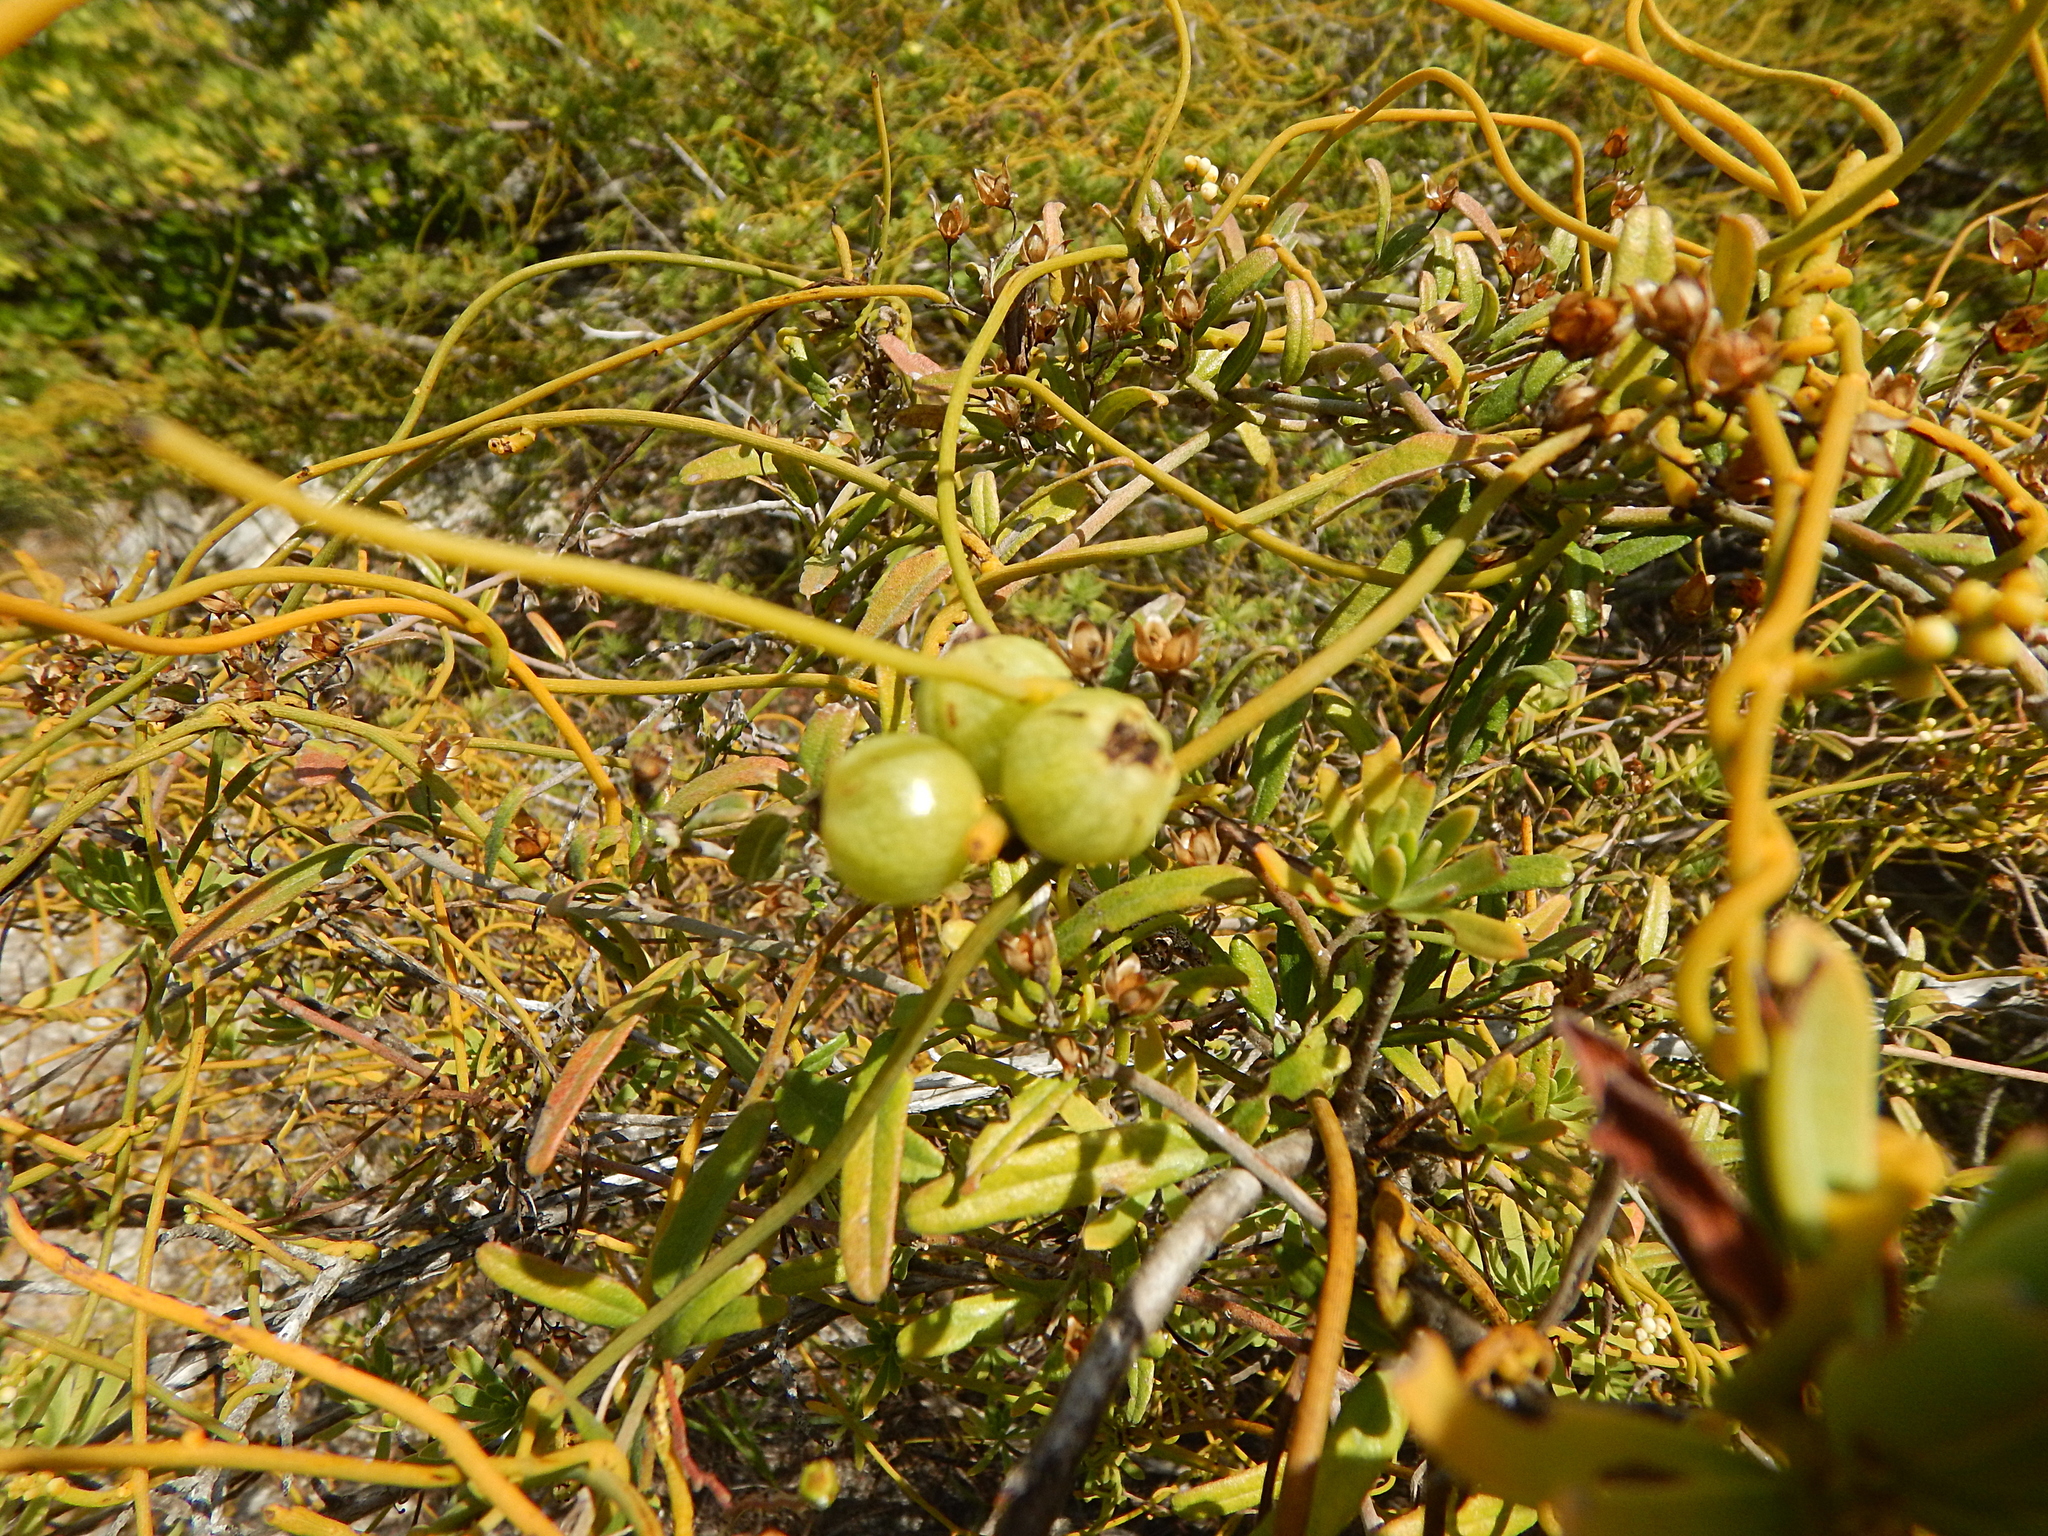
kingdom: Plantae
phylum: Tracheophyta
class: Magnoliopsida
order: Laurales
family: Lauraceae
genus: Cassytha
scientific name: Cassytha filiformis
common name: Dodder-laurel
